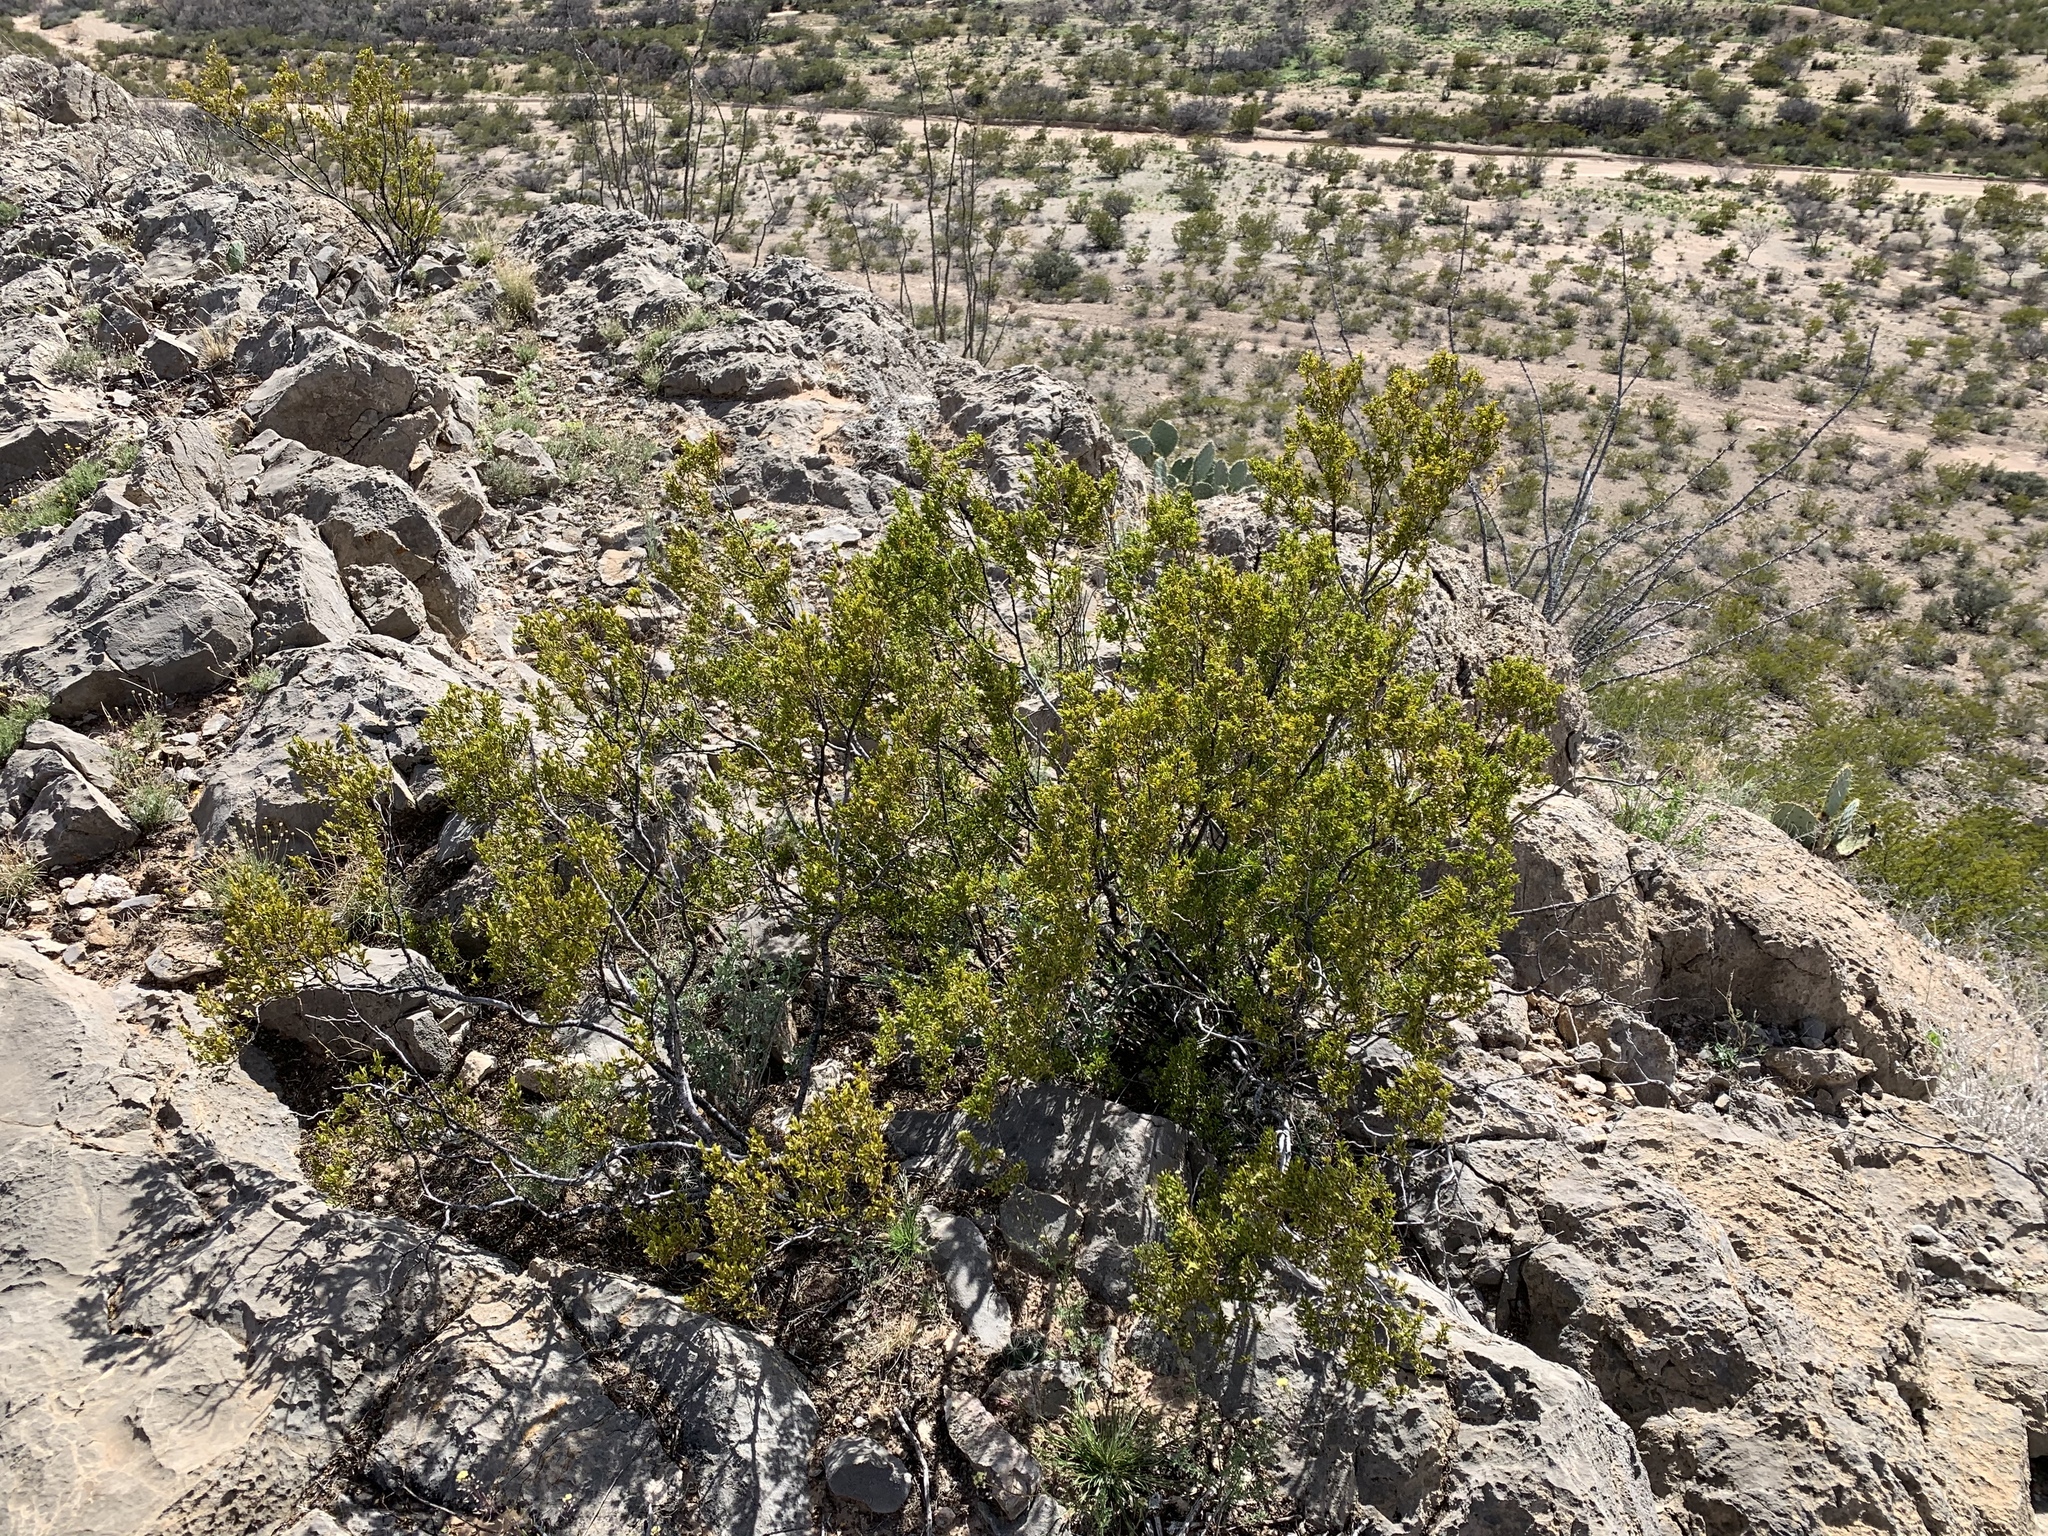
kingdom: Plantae
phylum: Tracheophyta
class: Magnoliopsida
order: Zygophyllales
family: Zygophyllaceae
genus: Larrea
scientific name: Larrea tridentata
